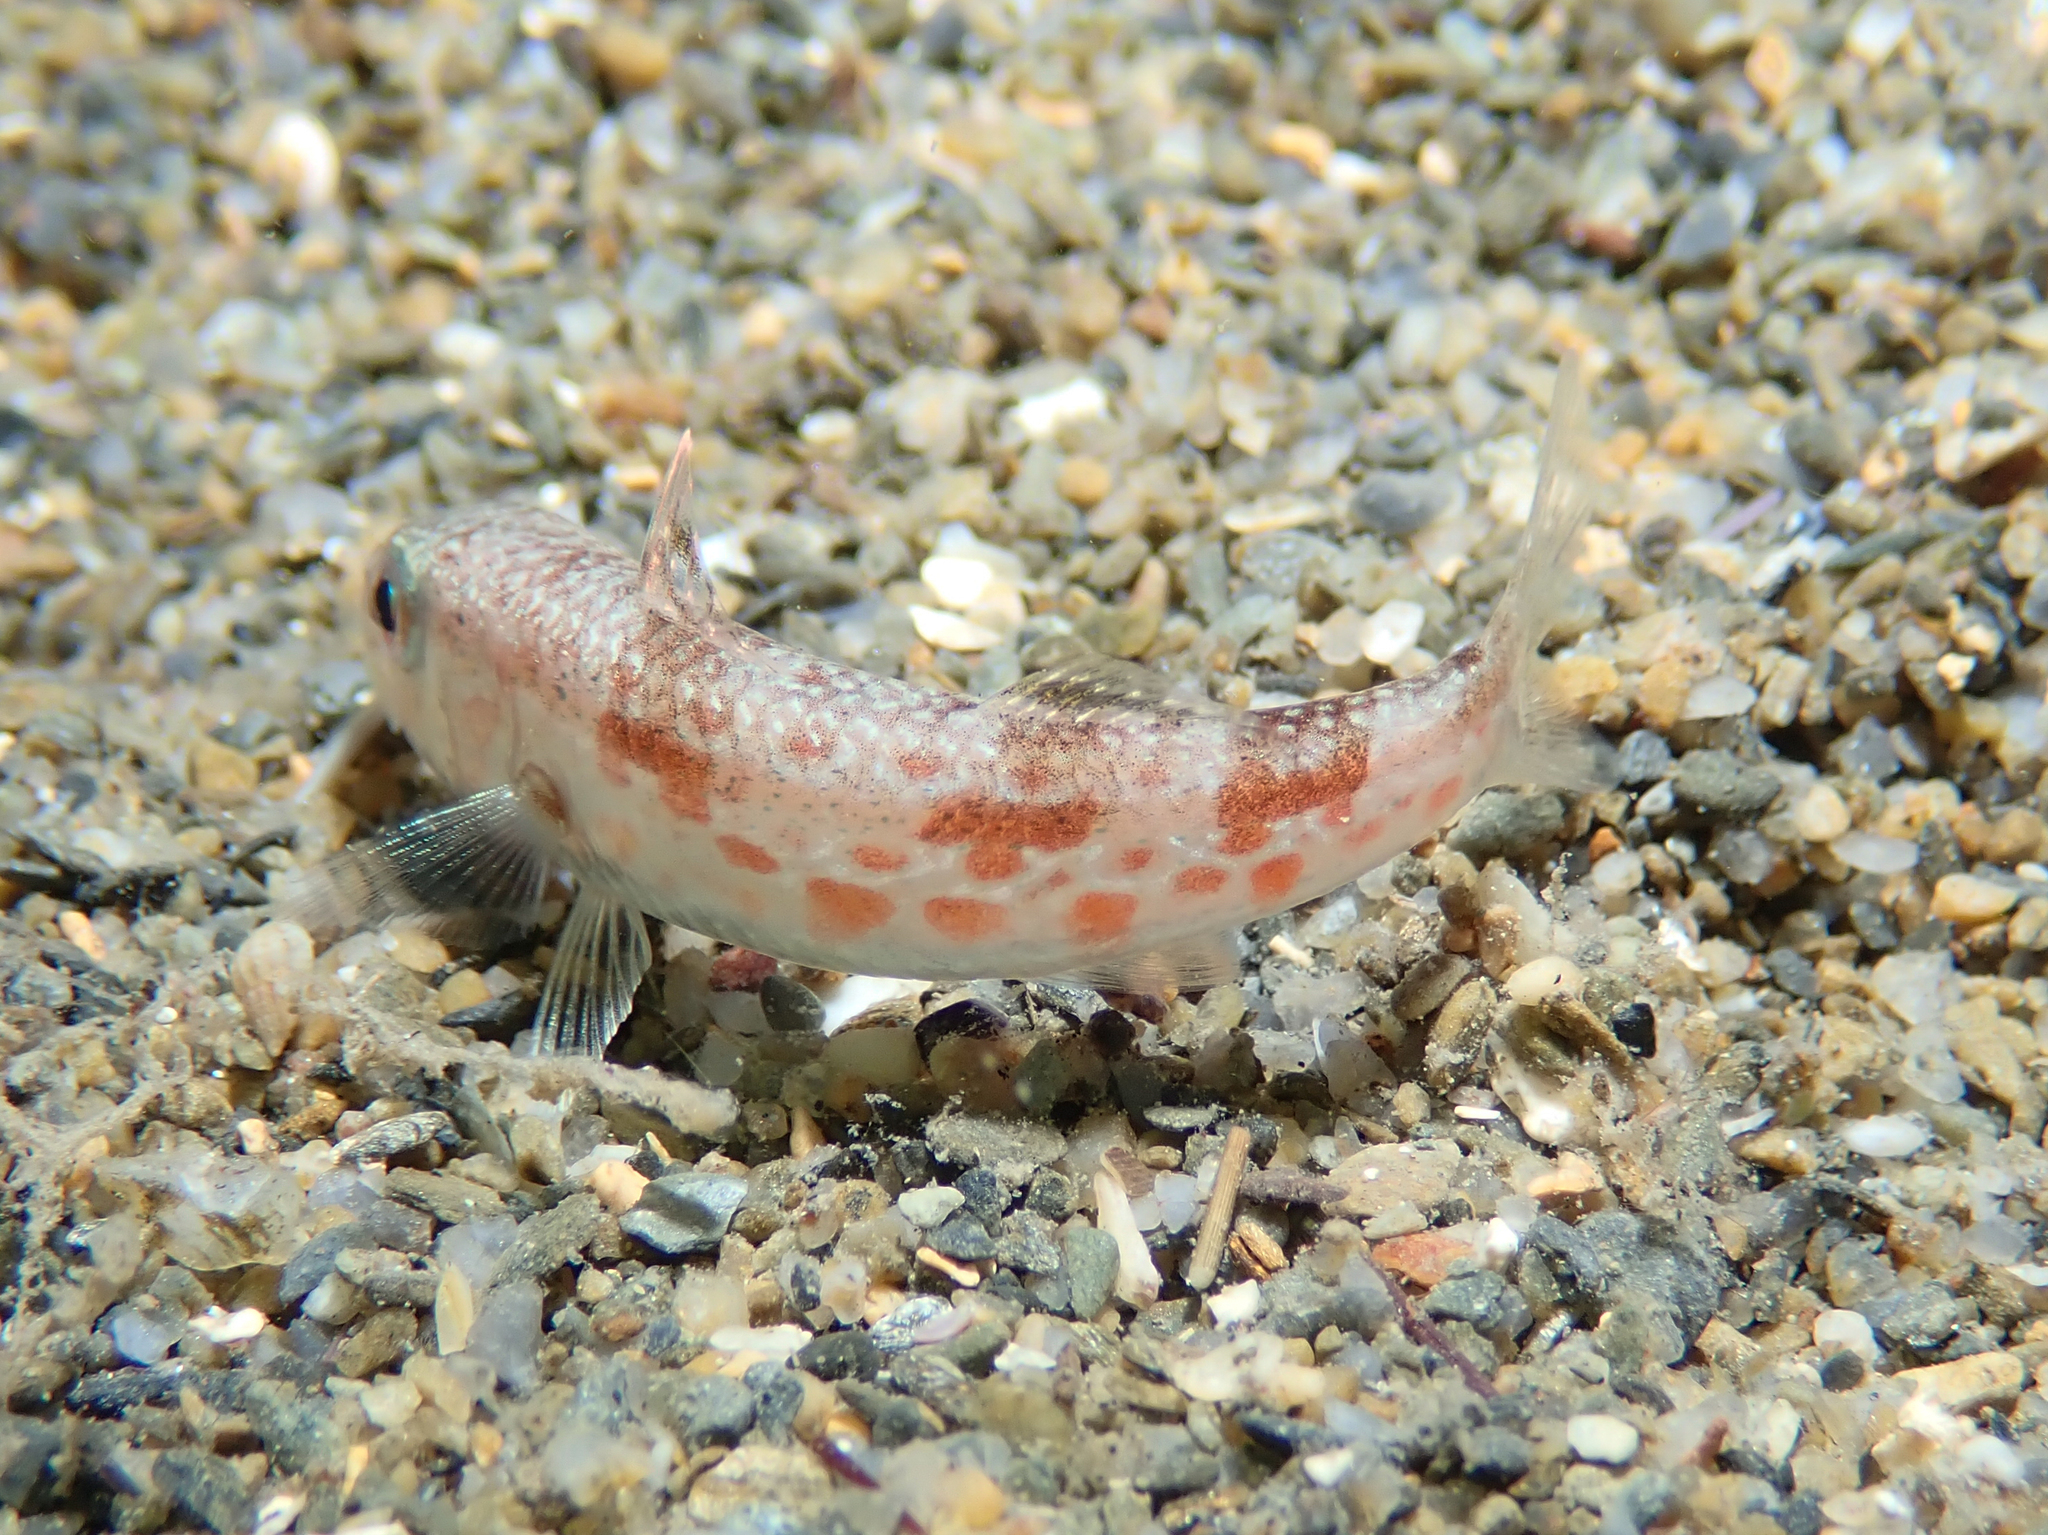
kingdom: Animalia
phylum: Chordata
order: Perciformes
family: Mullidae
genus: Mullus
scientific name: Mullus barbatus
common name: Blunt-snouted mullet
